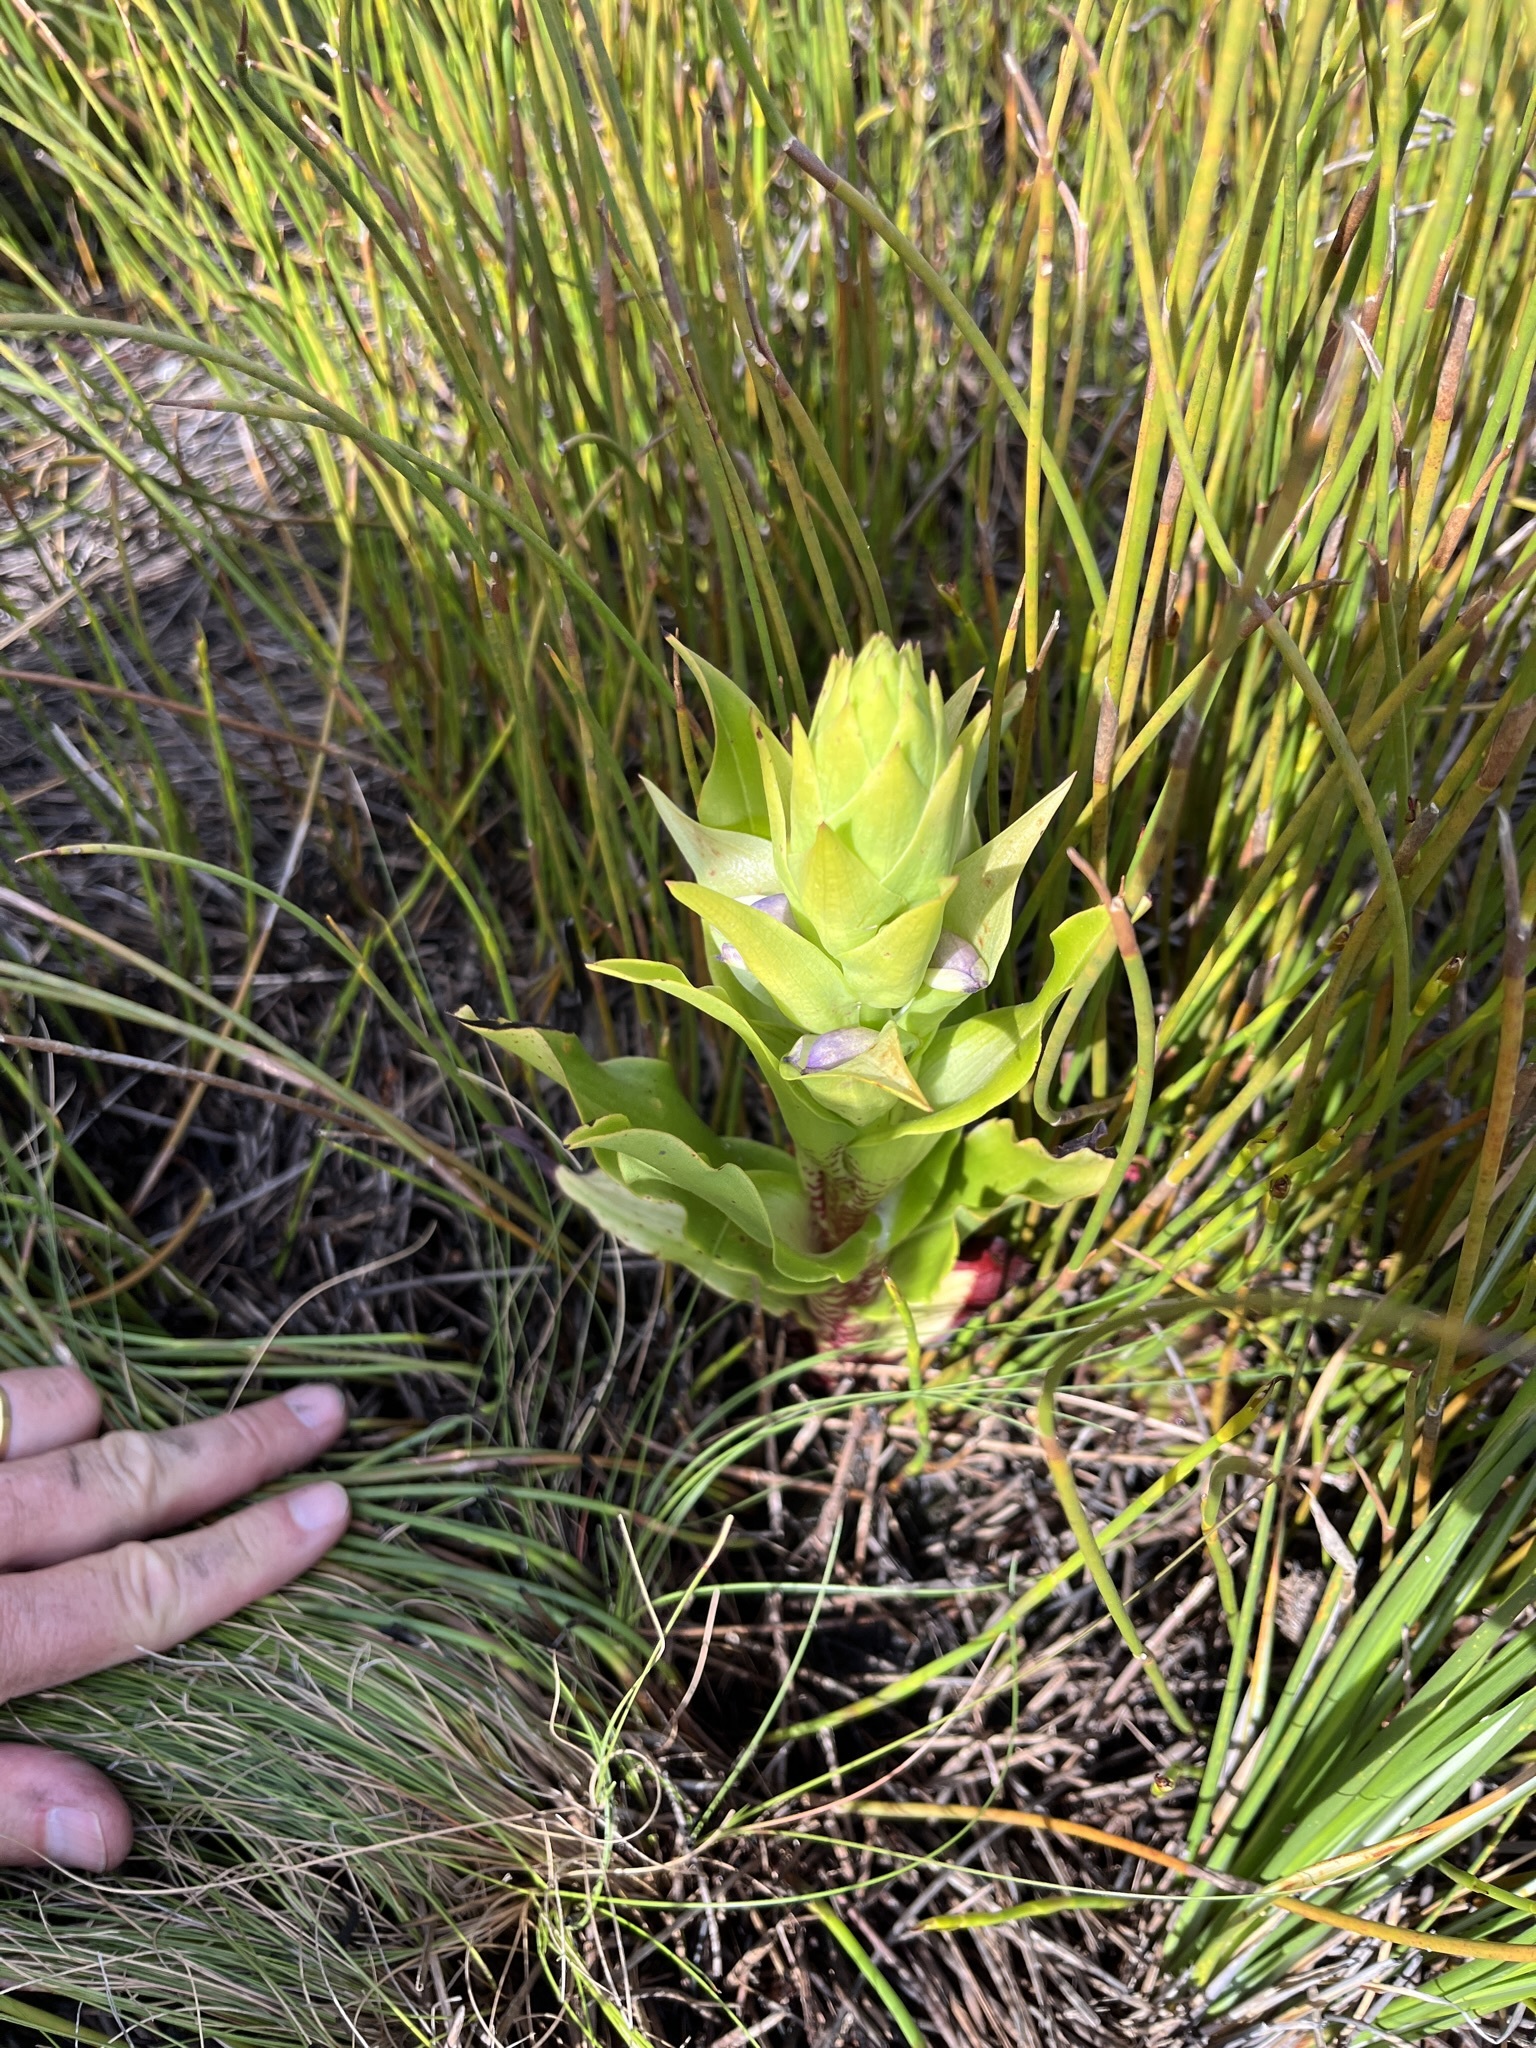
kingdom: Plantae
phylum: Tracheophyta
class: Liliopsida
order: Asparagales
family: Orchidaceae
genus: Disa
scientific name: Disa cornuta
